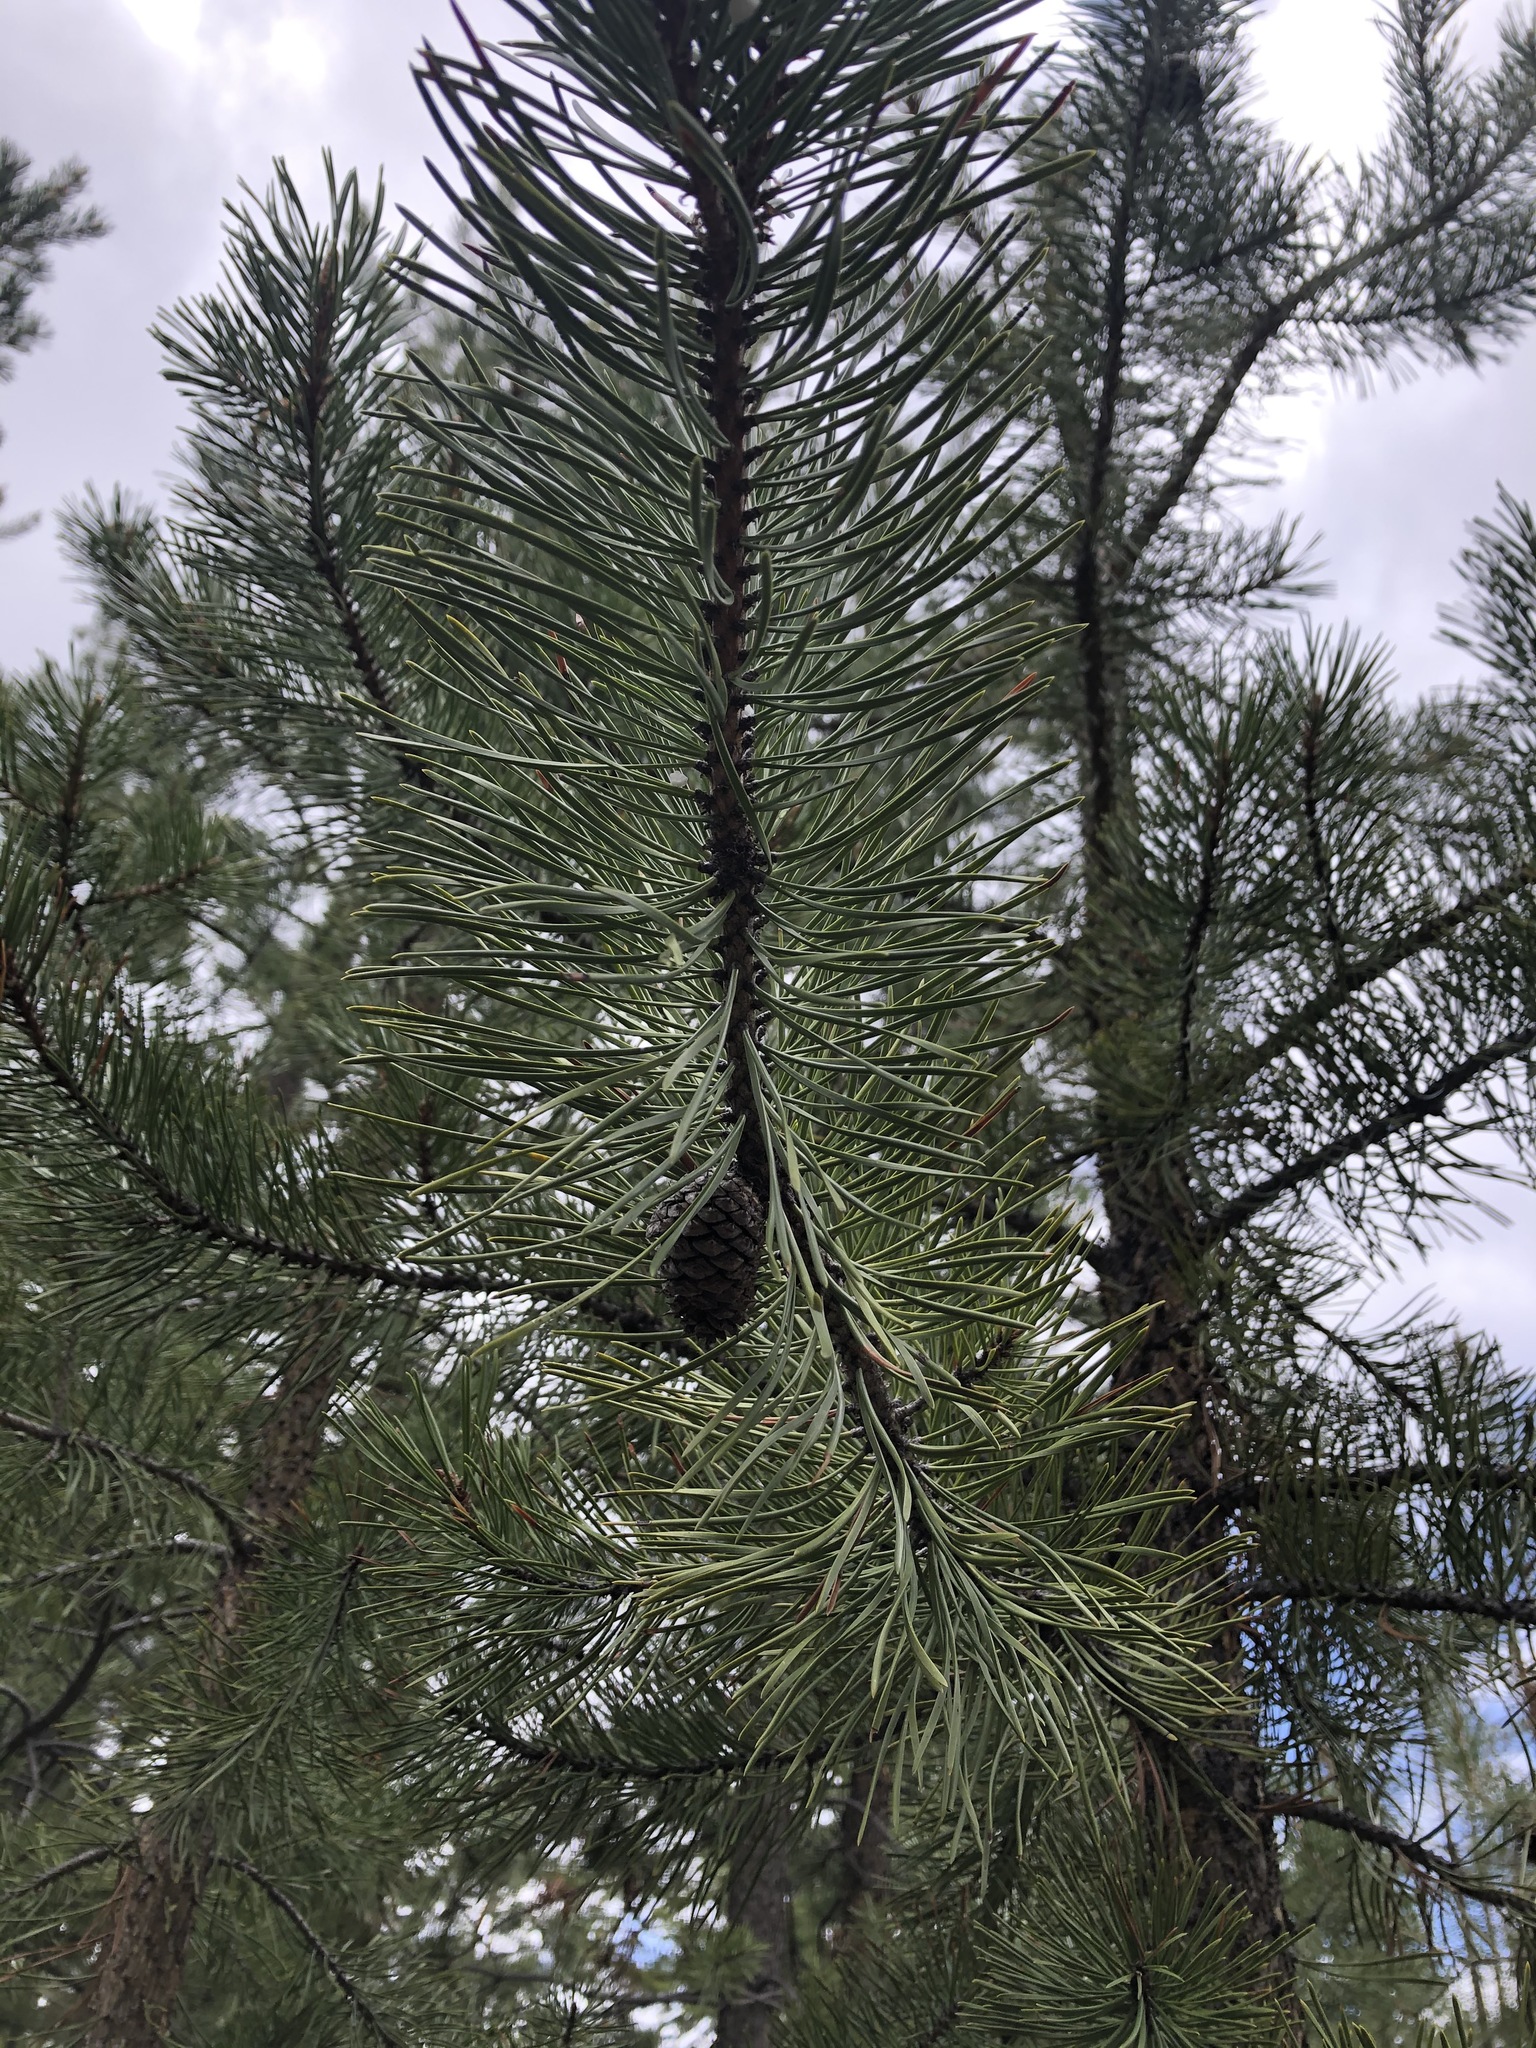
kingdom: Plantae
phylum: Tracheophyta
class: Pinopsida
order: Pinales
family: Pinaceae
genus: Pinus
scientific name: Pinus contorta
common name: Lodgepole pine
